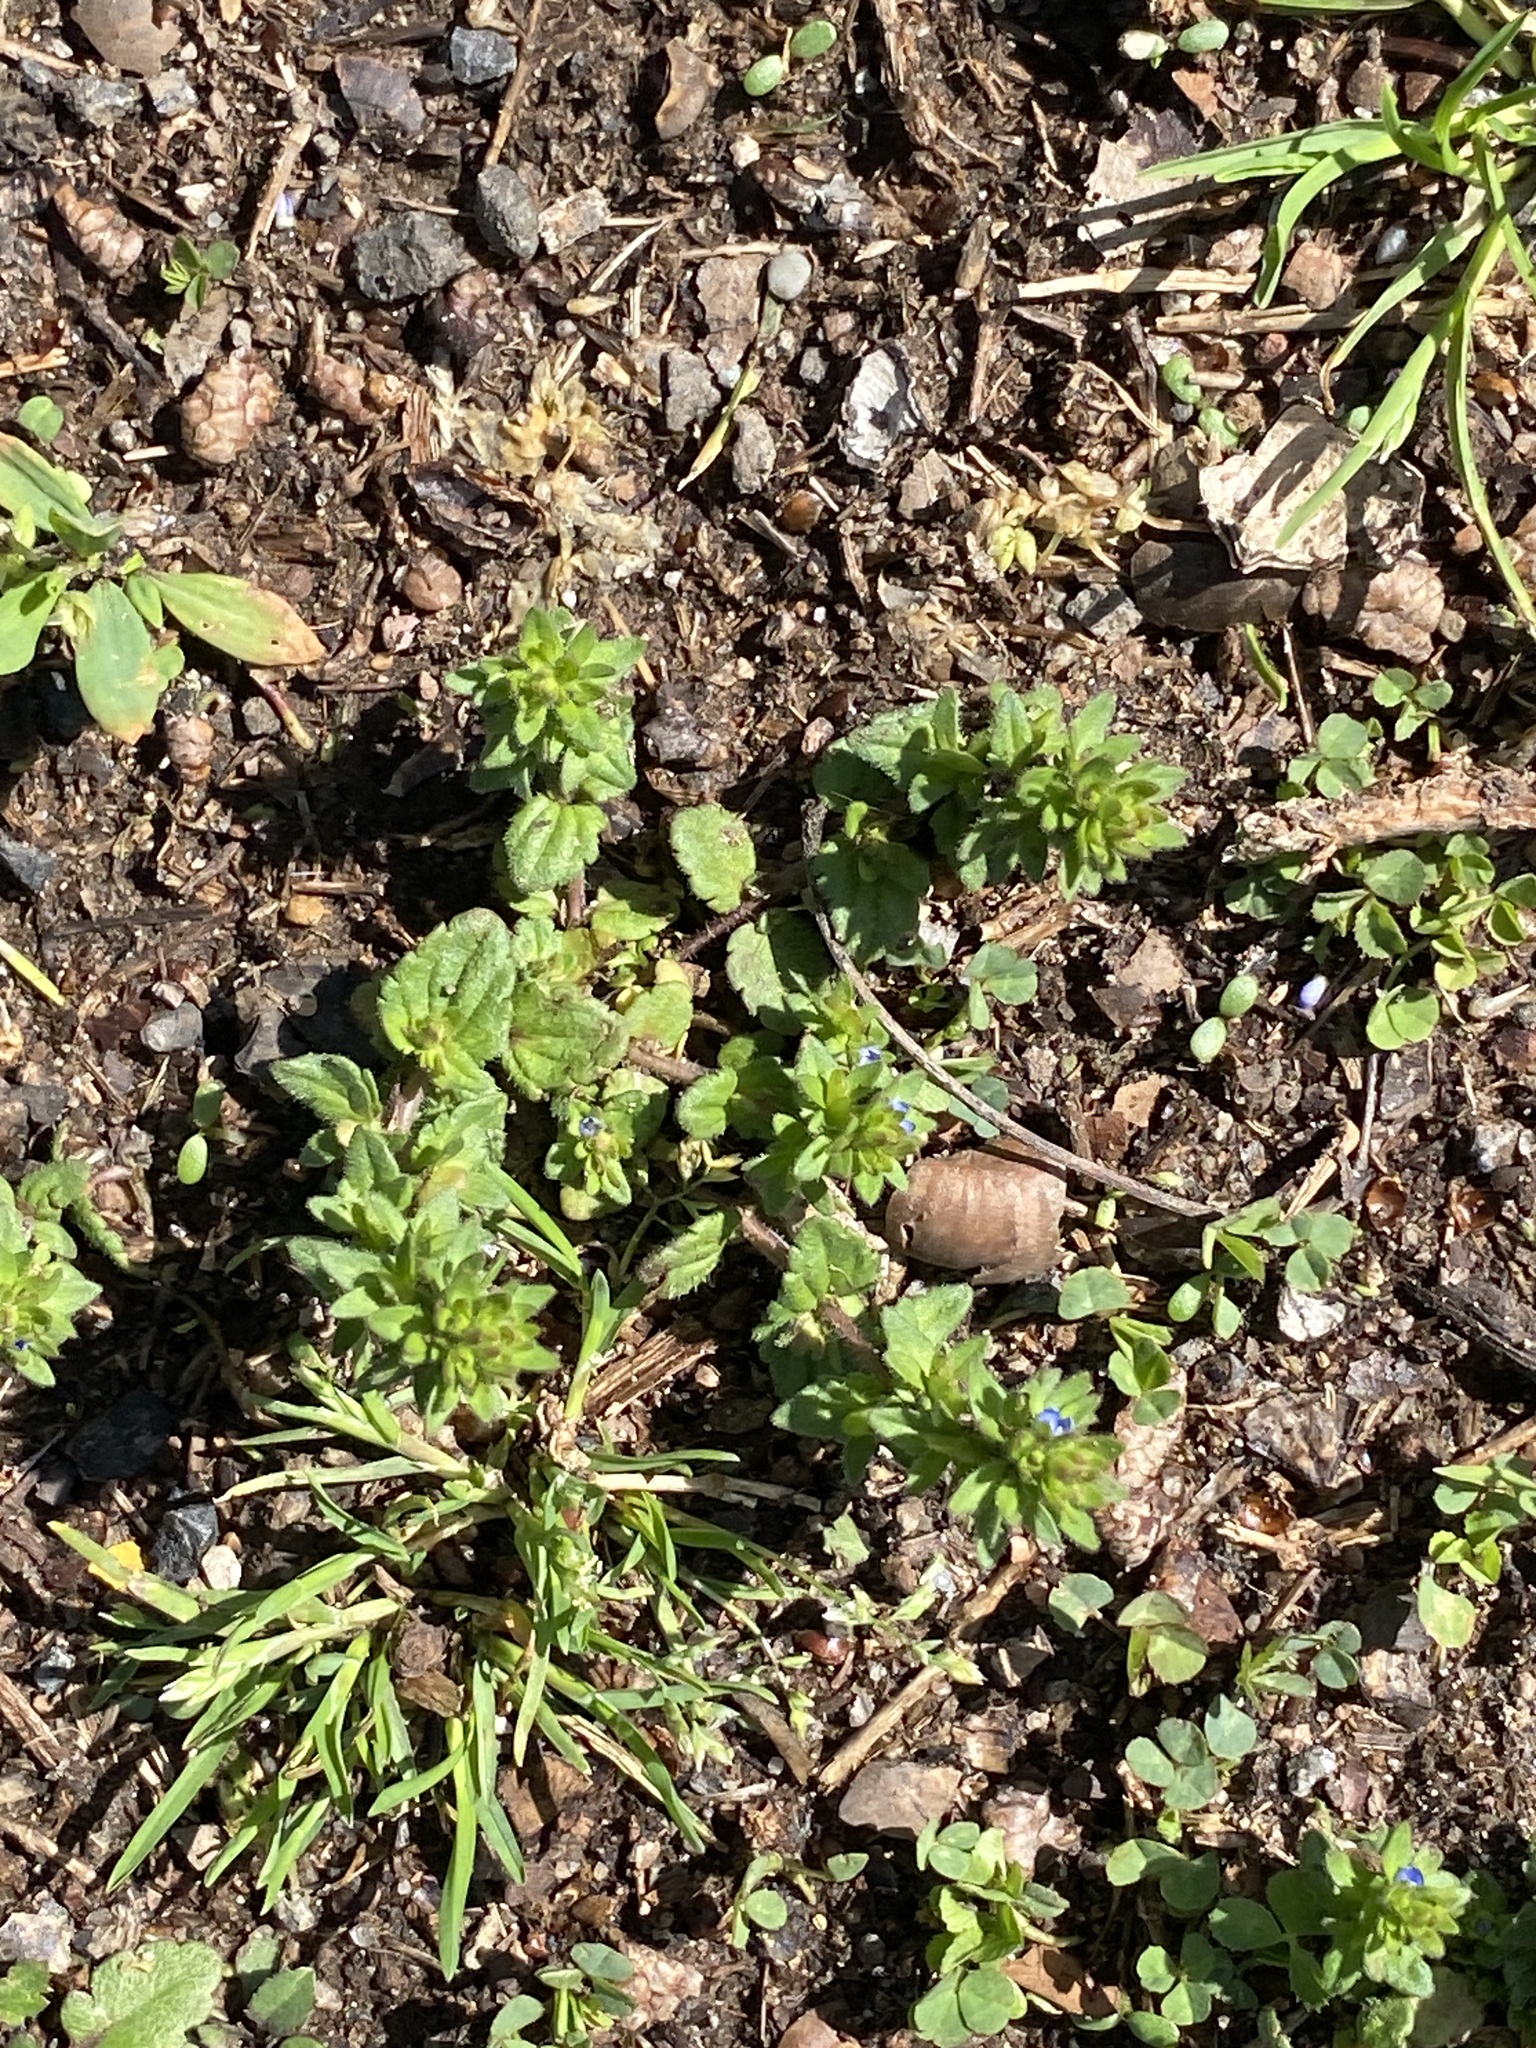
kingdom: Plantae
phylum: Tracheophyta
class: Magnoliopsida
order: Lamiales
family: Plantaginaceae
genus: Veronica
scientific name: Veronica arvensis
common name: Corn speedwell
